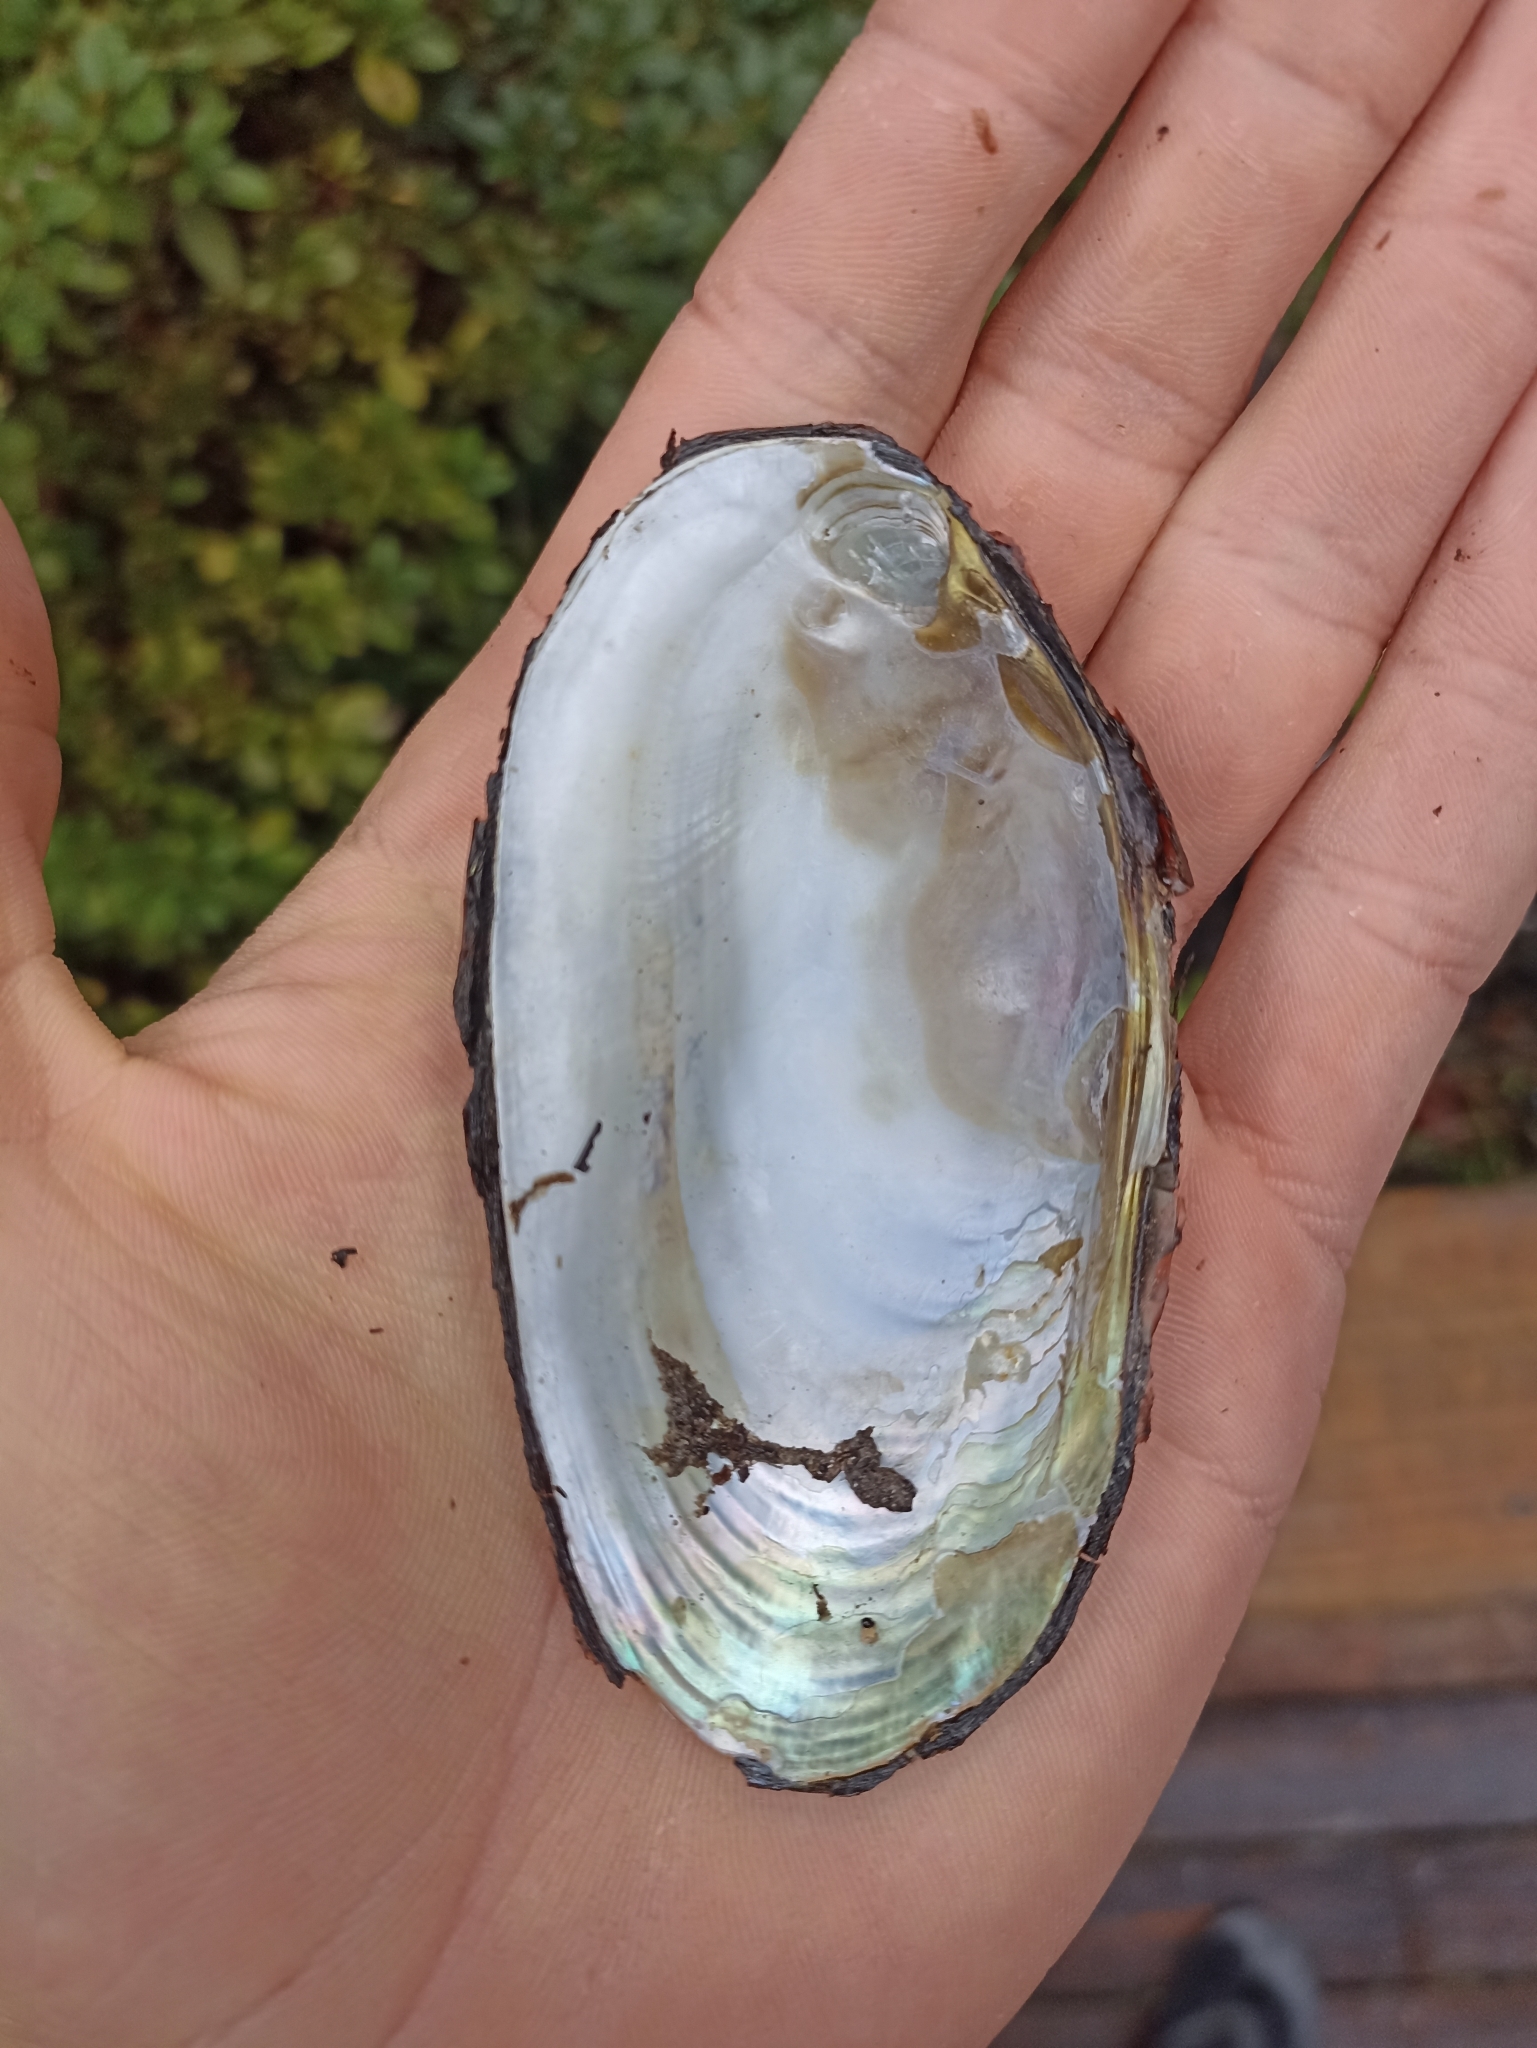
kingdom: Animalia
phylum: Mollusca
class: Bivalvia
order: Unionida
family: Hyriidae
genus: Echyridella
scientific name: Echyridella menziesii
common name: New zealand freshwater mussel
